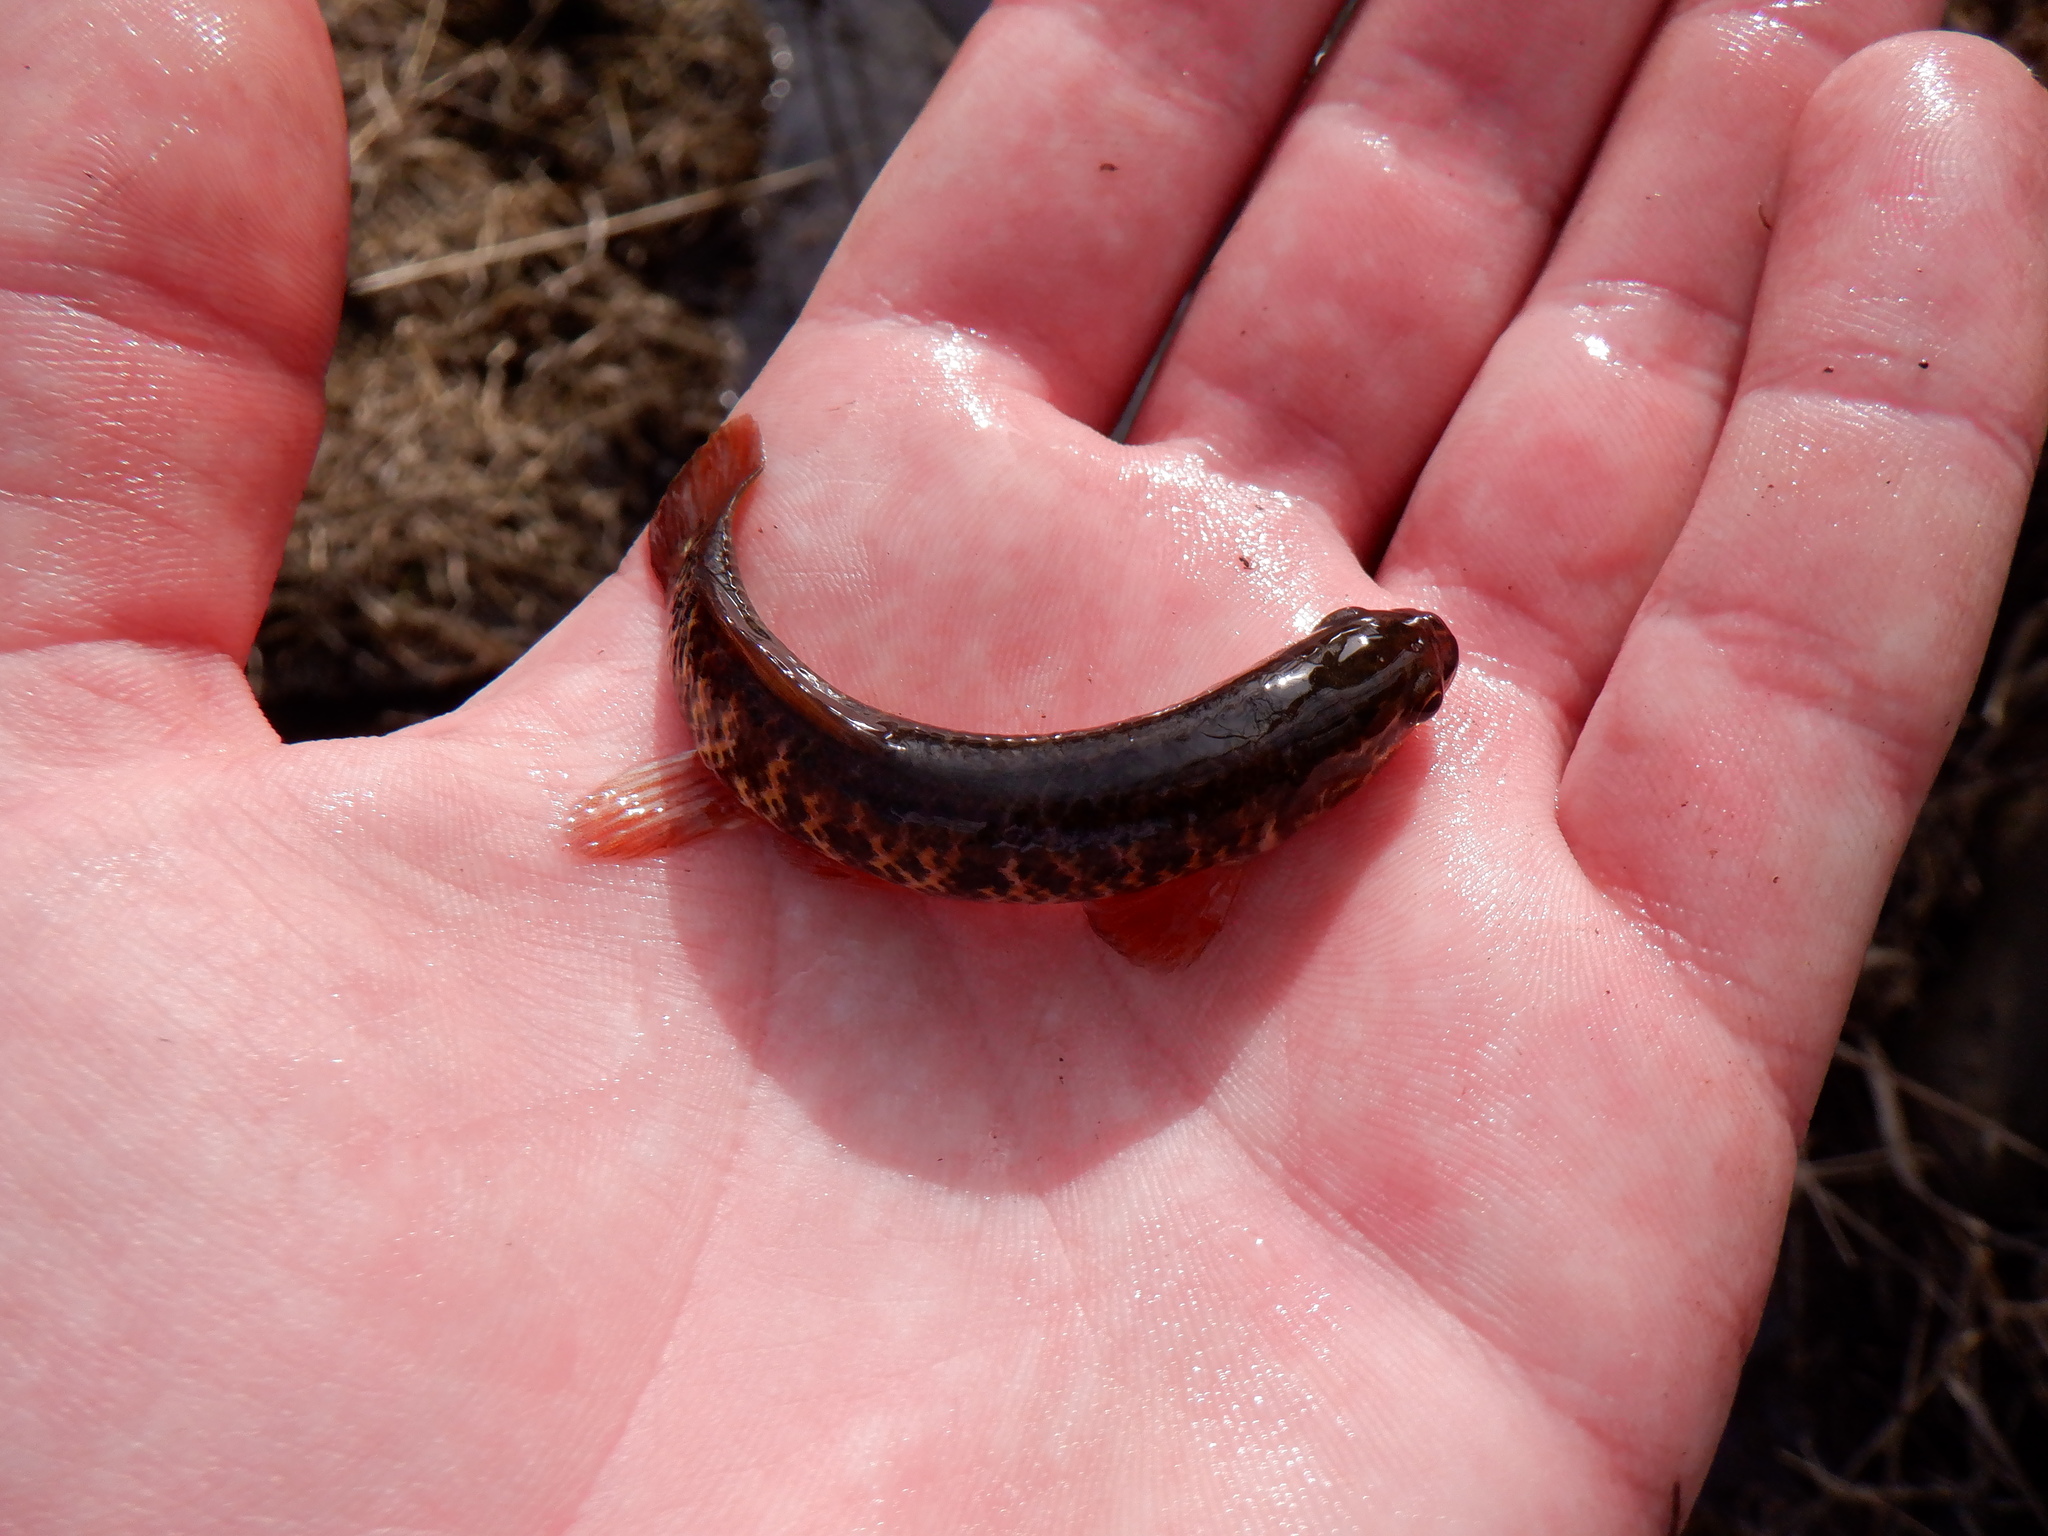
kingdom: Animalia
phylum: Chordata
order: Esociformes
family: Umbridae
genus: Umbra
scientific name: Umbra limi
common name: Central mudminnow
